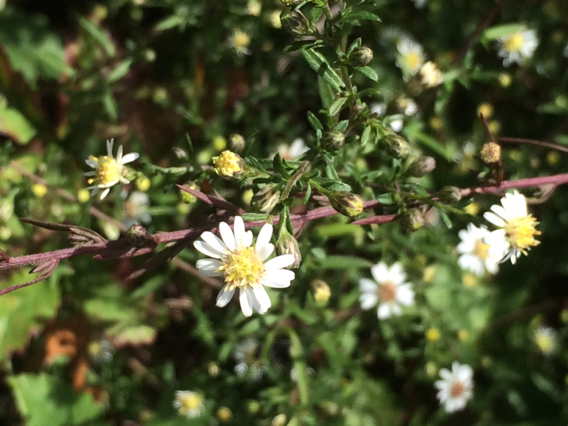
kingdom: Plantae
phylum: Tracheophyta
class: Magnoliopsida
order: Asterales
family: Asteraceae
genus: Symphyotrichum
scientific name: Symphyotrichum ericoides
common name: Heath aster
